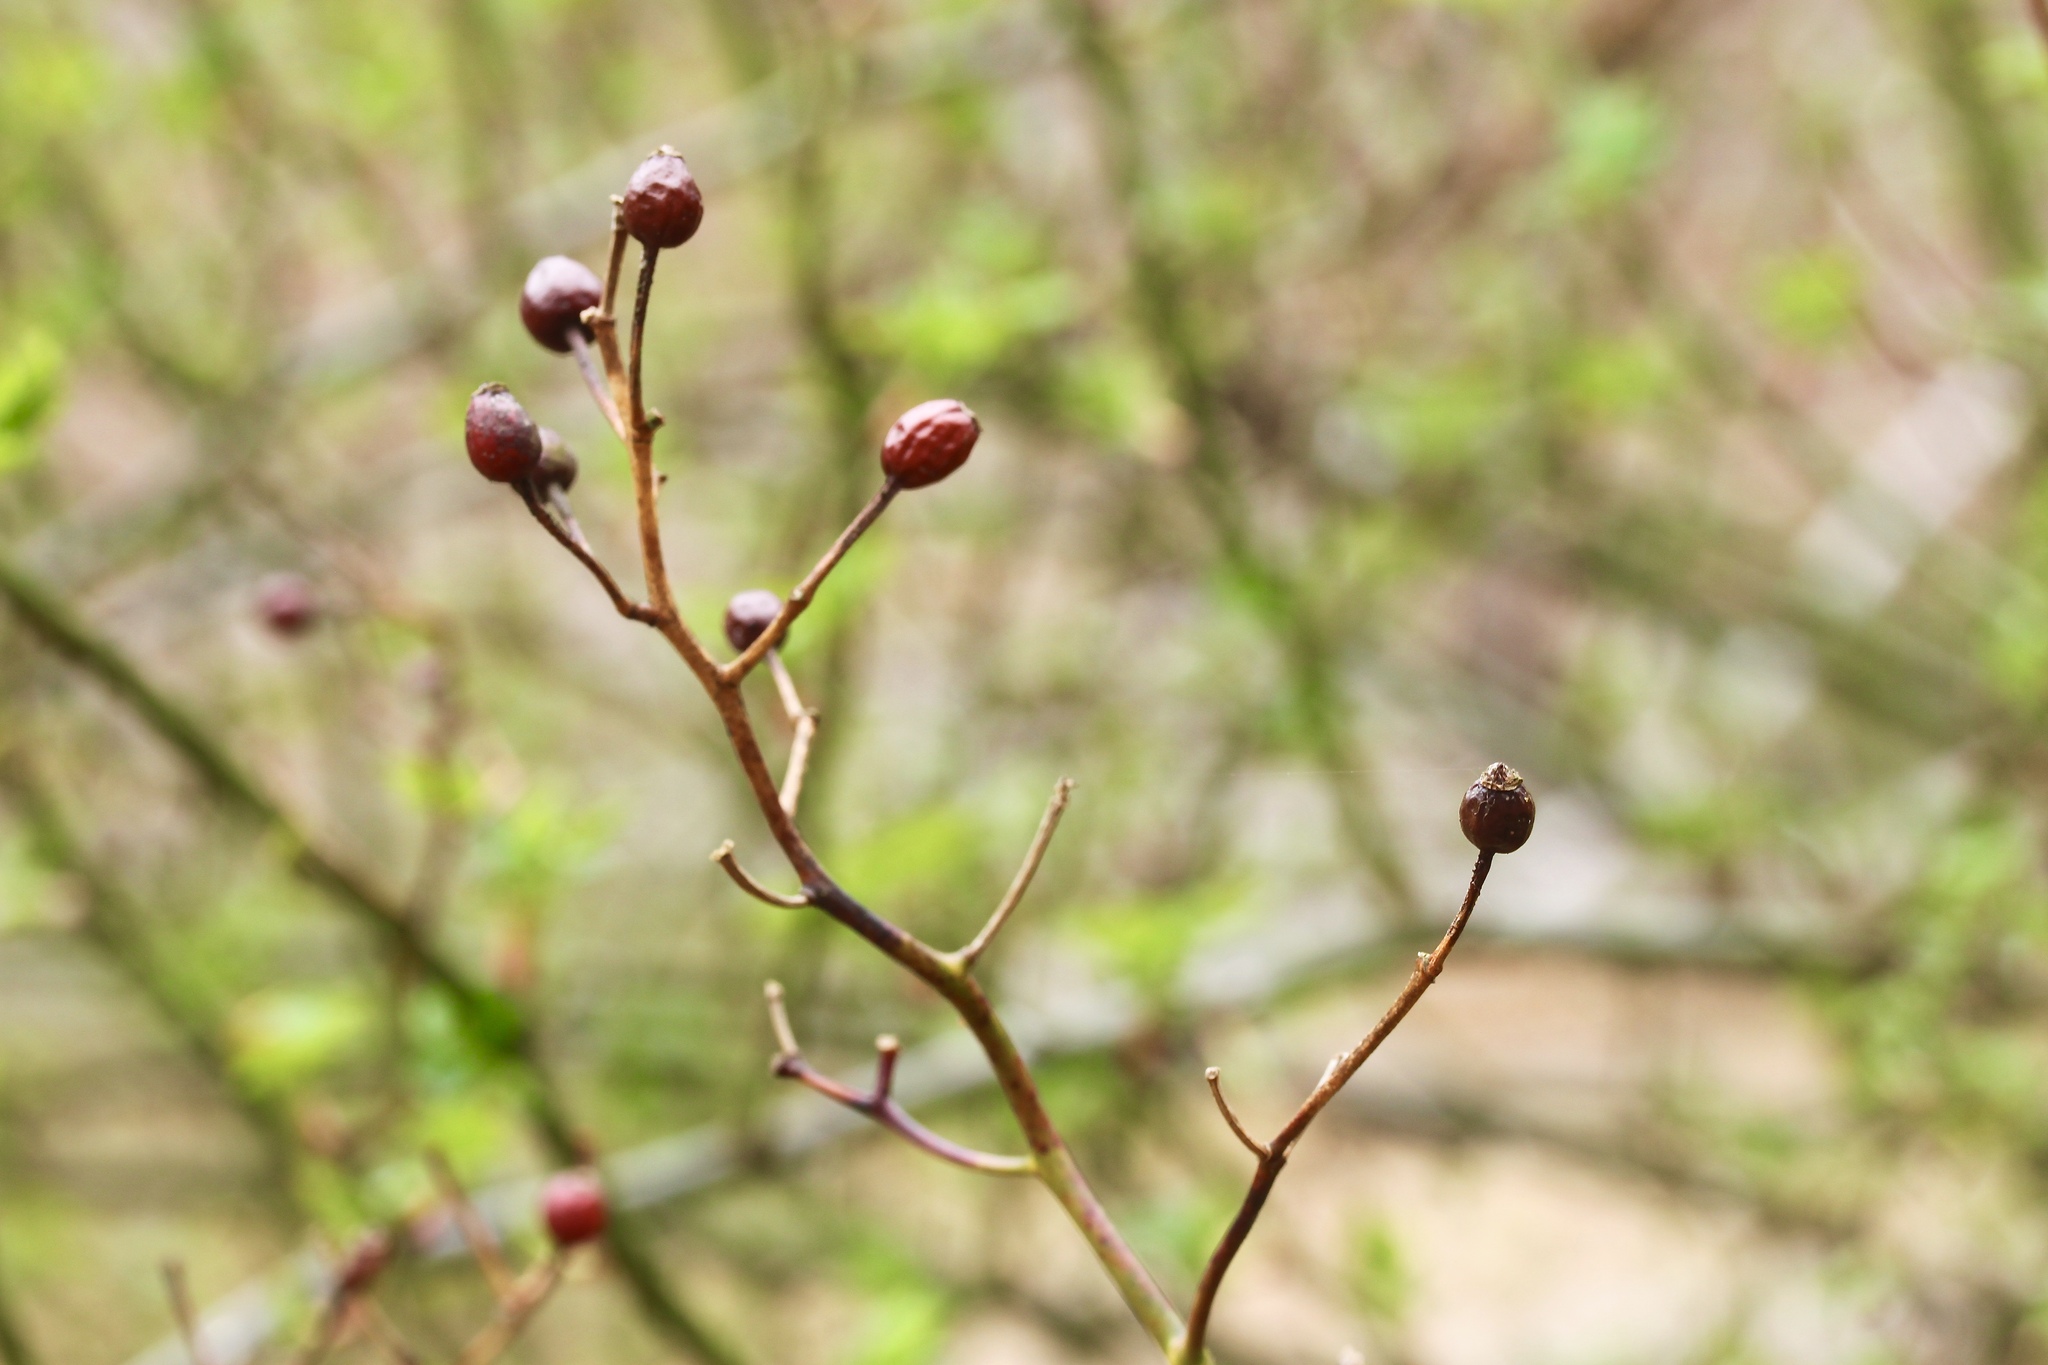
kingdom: Plantae
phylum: Tracheophyta
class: Magnoliopsida
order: Rosales
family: Rosaceae
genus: Rosa
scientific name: Rosa multiflora
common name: Multiflora rose
